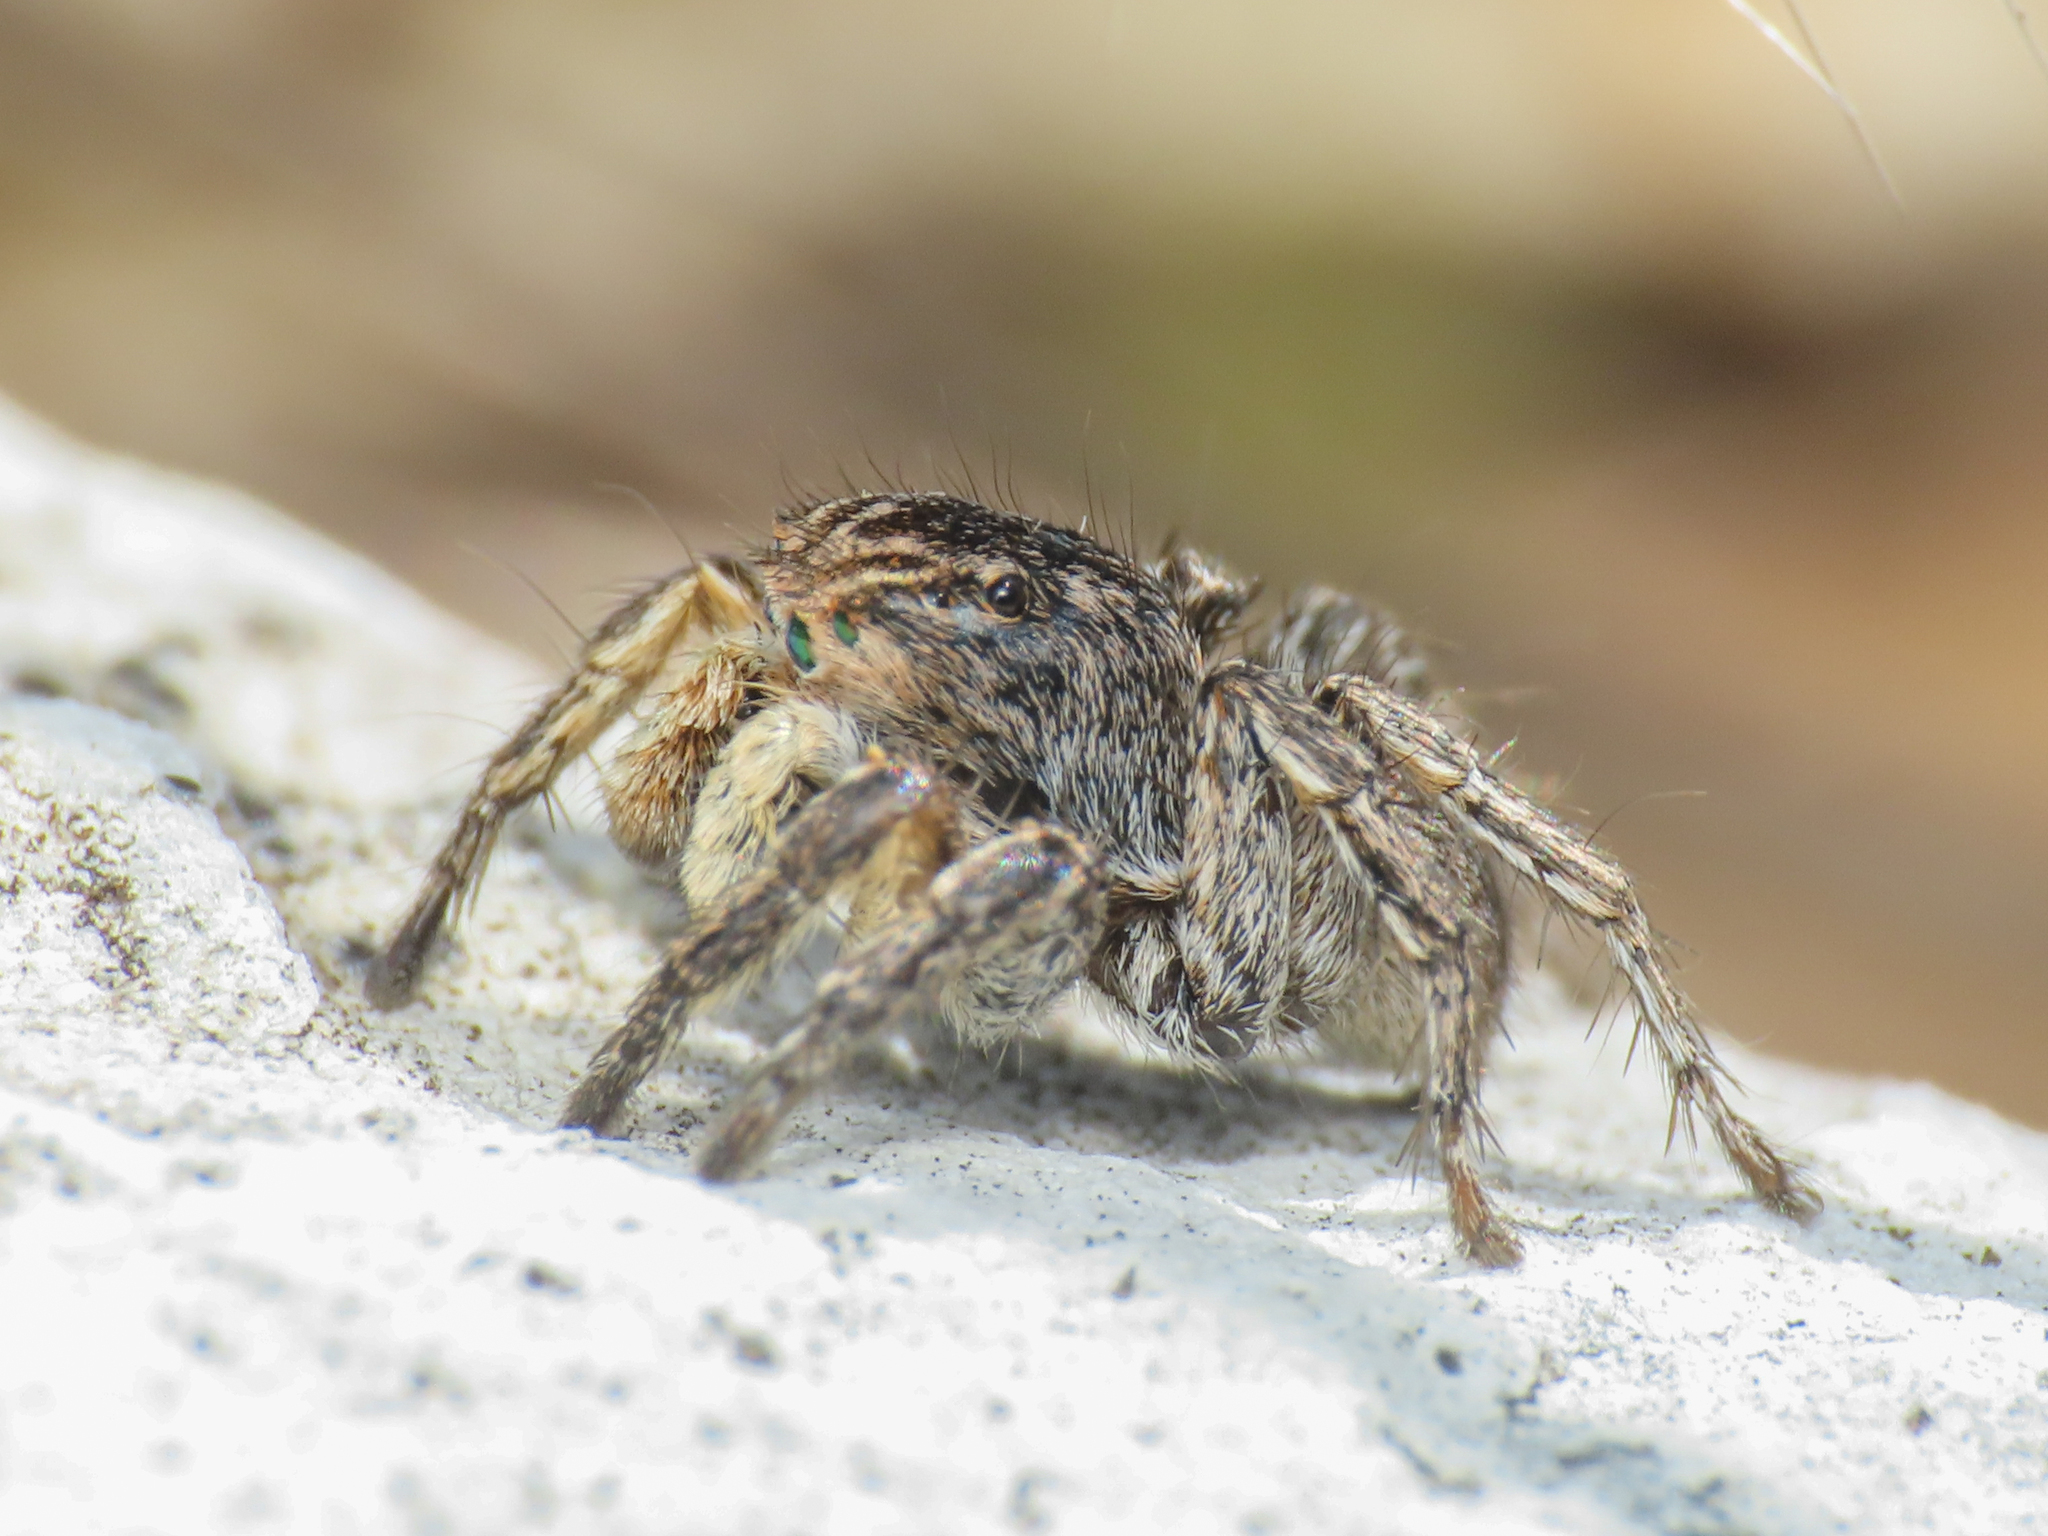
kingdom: Animalia
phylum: Arthropoda
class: Arachnida
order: Araneae
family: Salticidae
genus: Aelurillus
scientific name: Aelurillus v-insignitus
